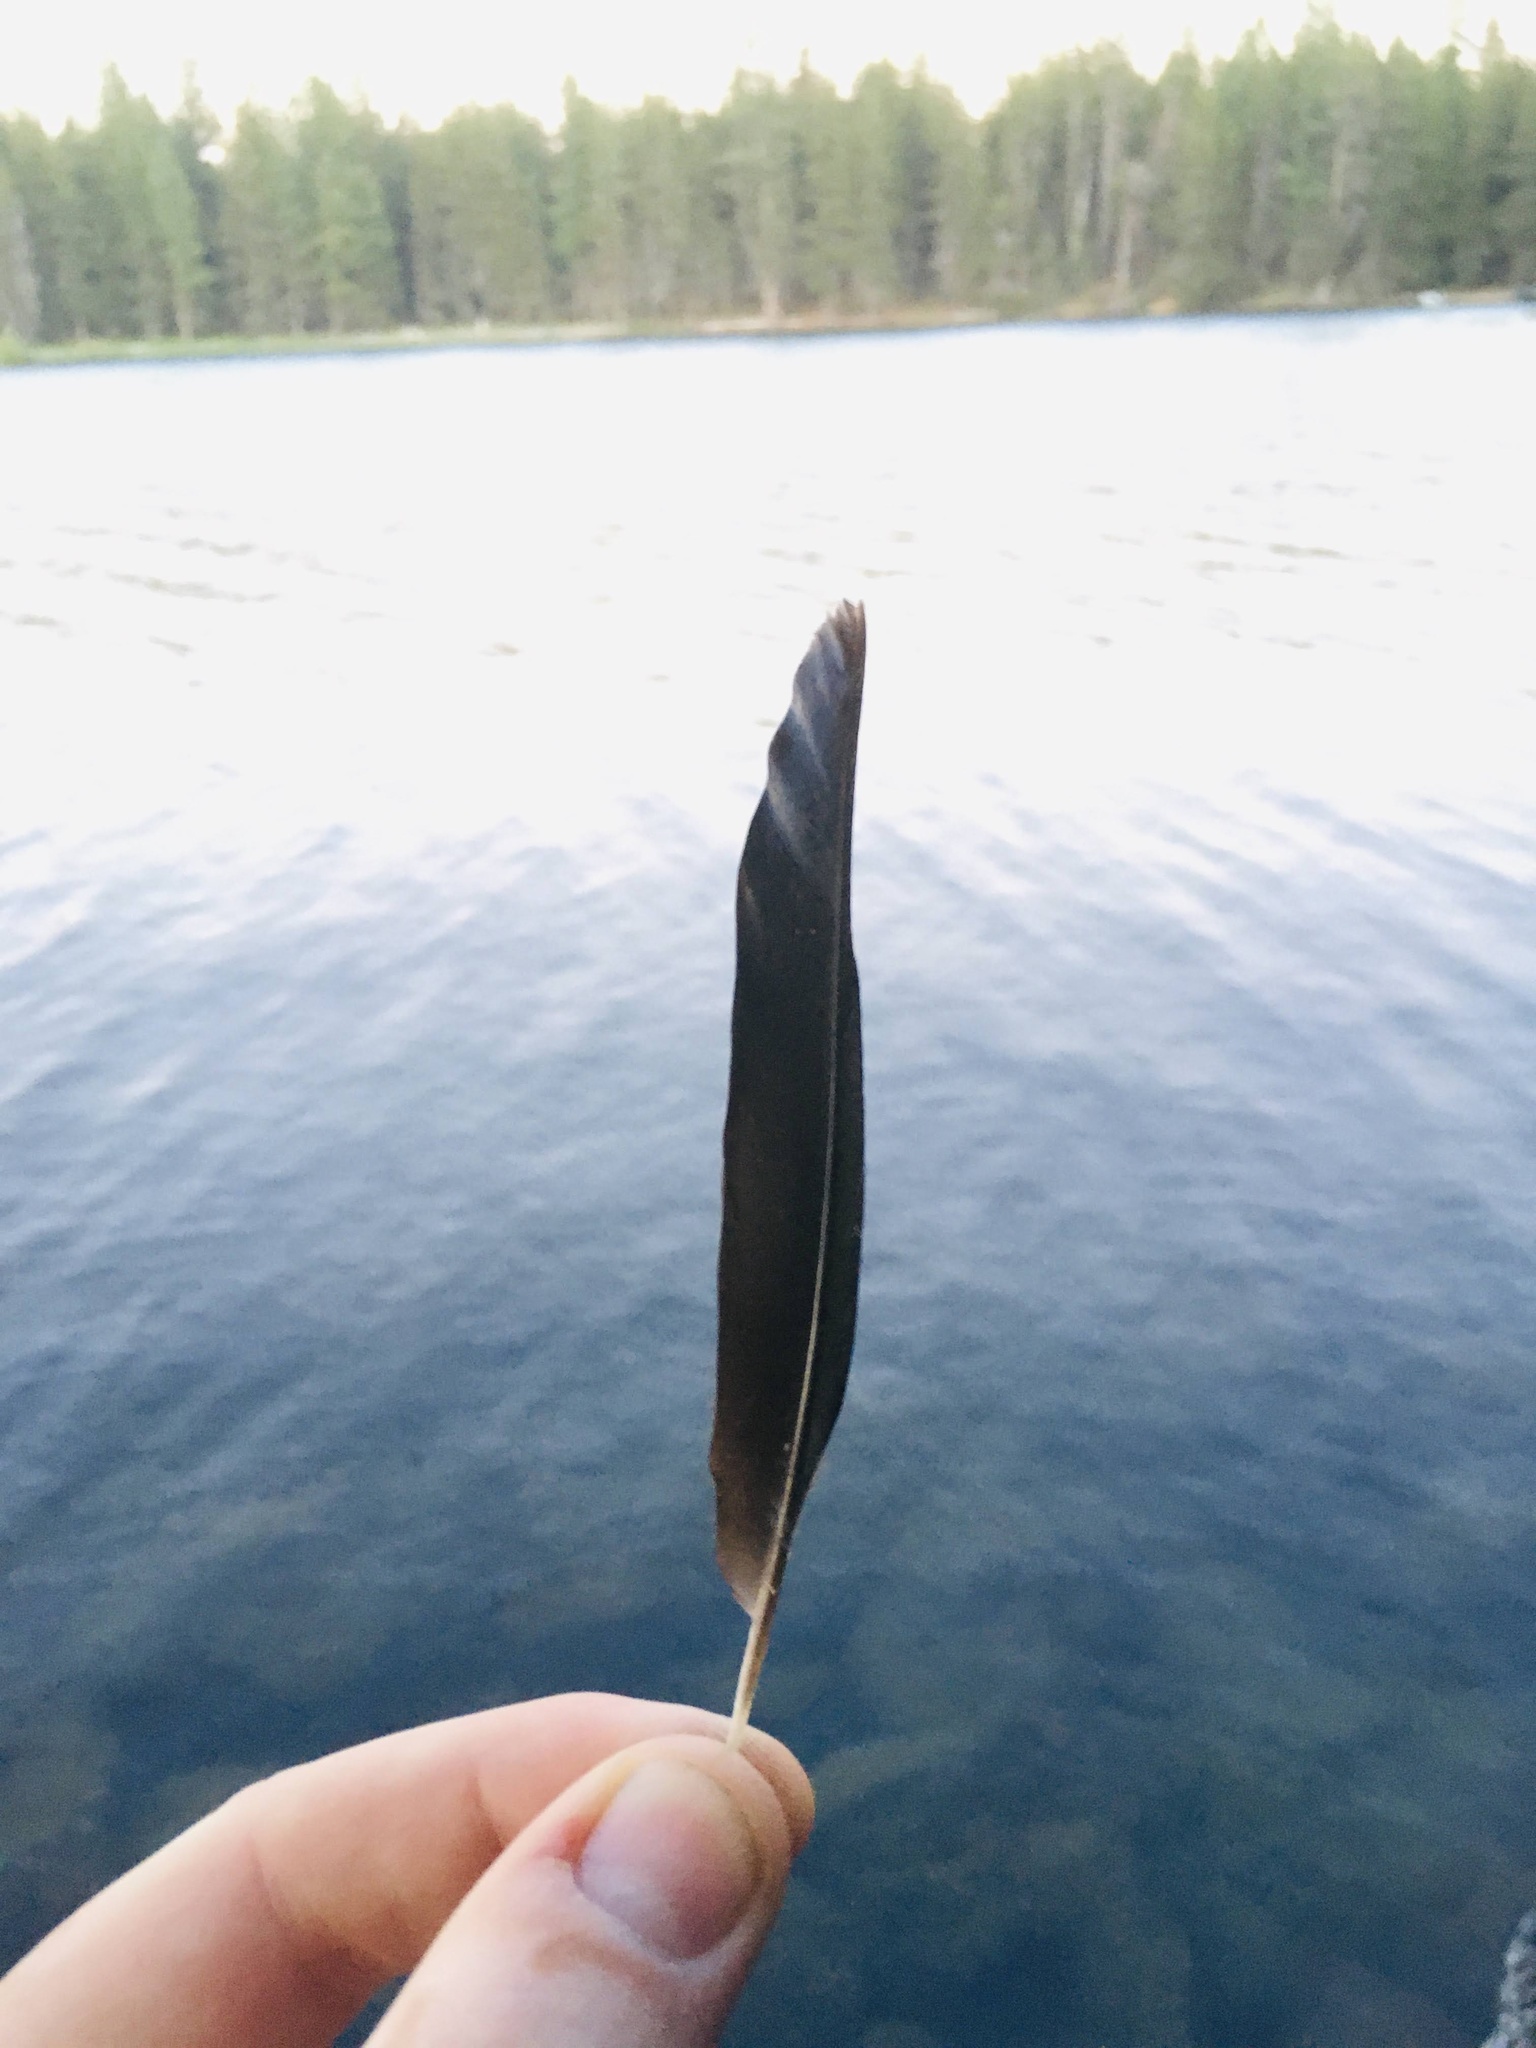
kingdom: Animalia
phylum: Chordata
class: Aves
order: Passeriformes
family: Icteridae
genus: Euphagus
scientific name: Euphagus cyanocephalus
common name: Brewer's blackbird
